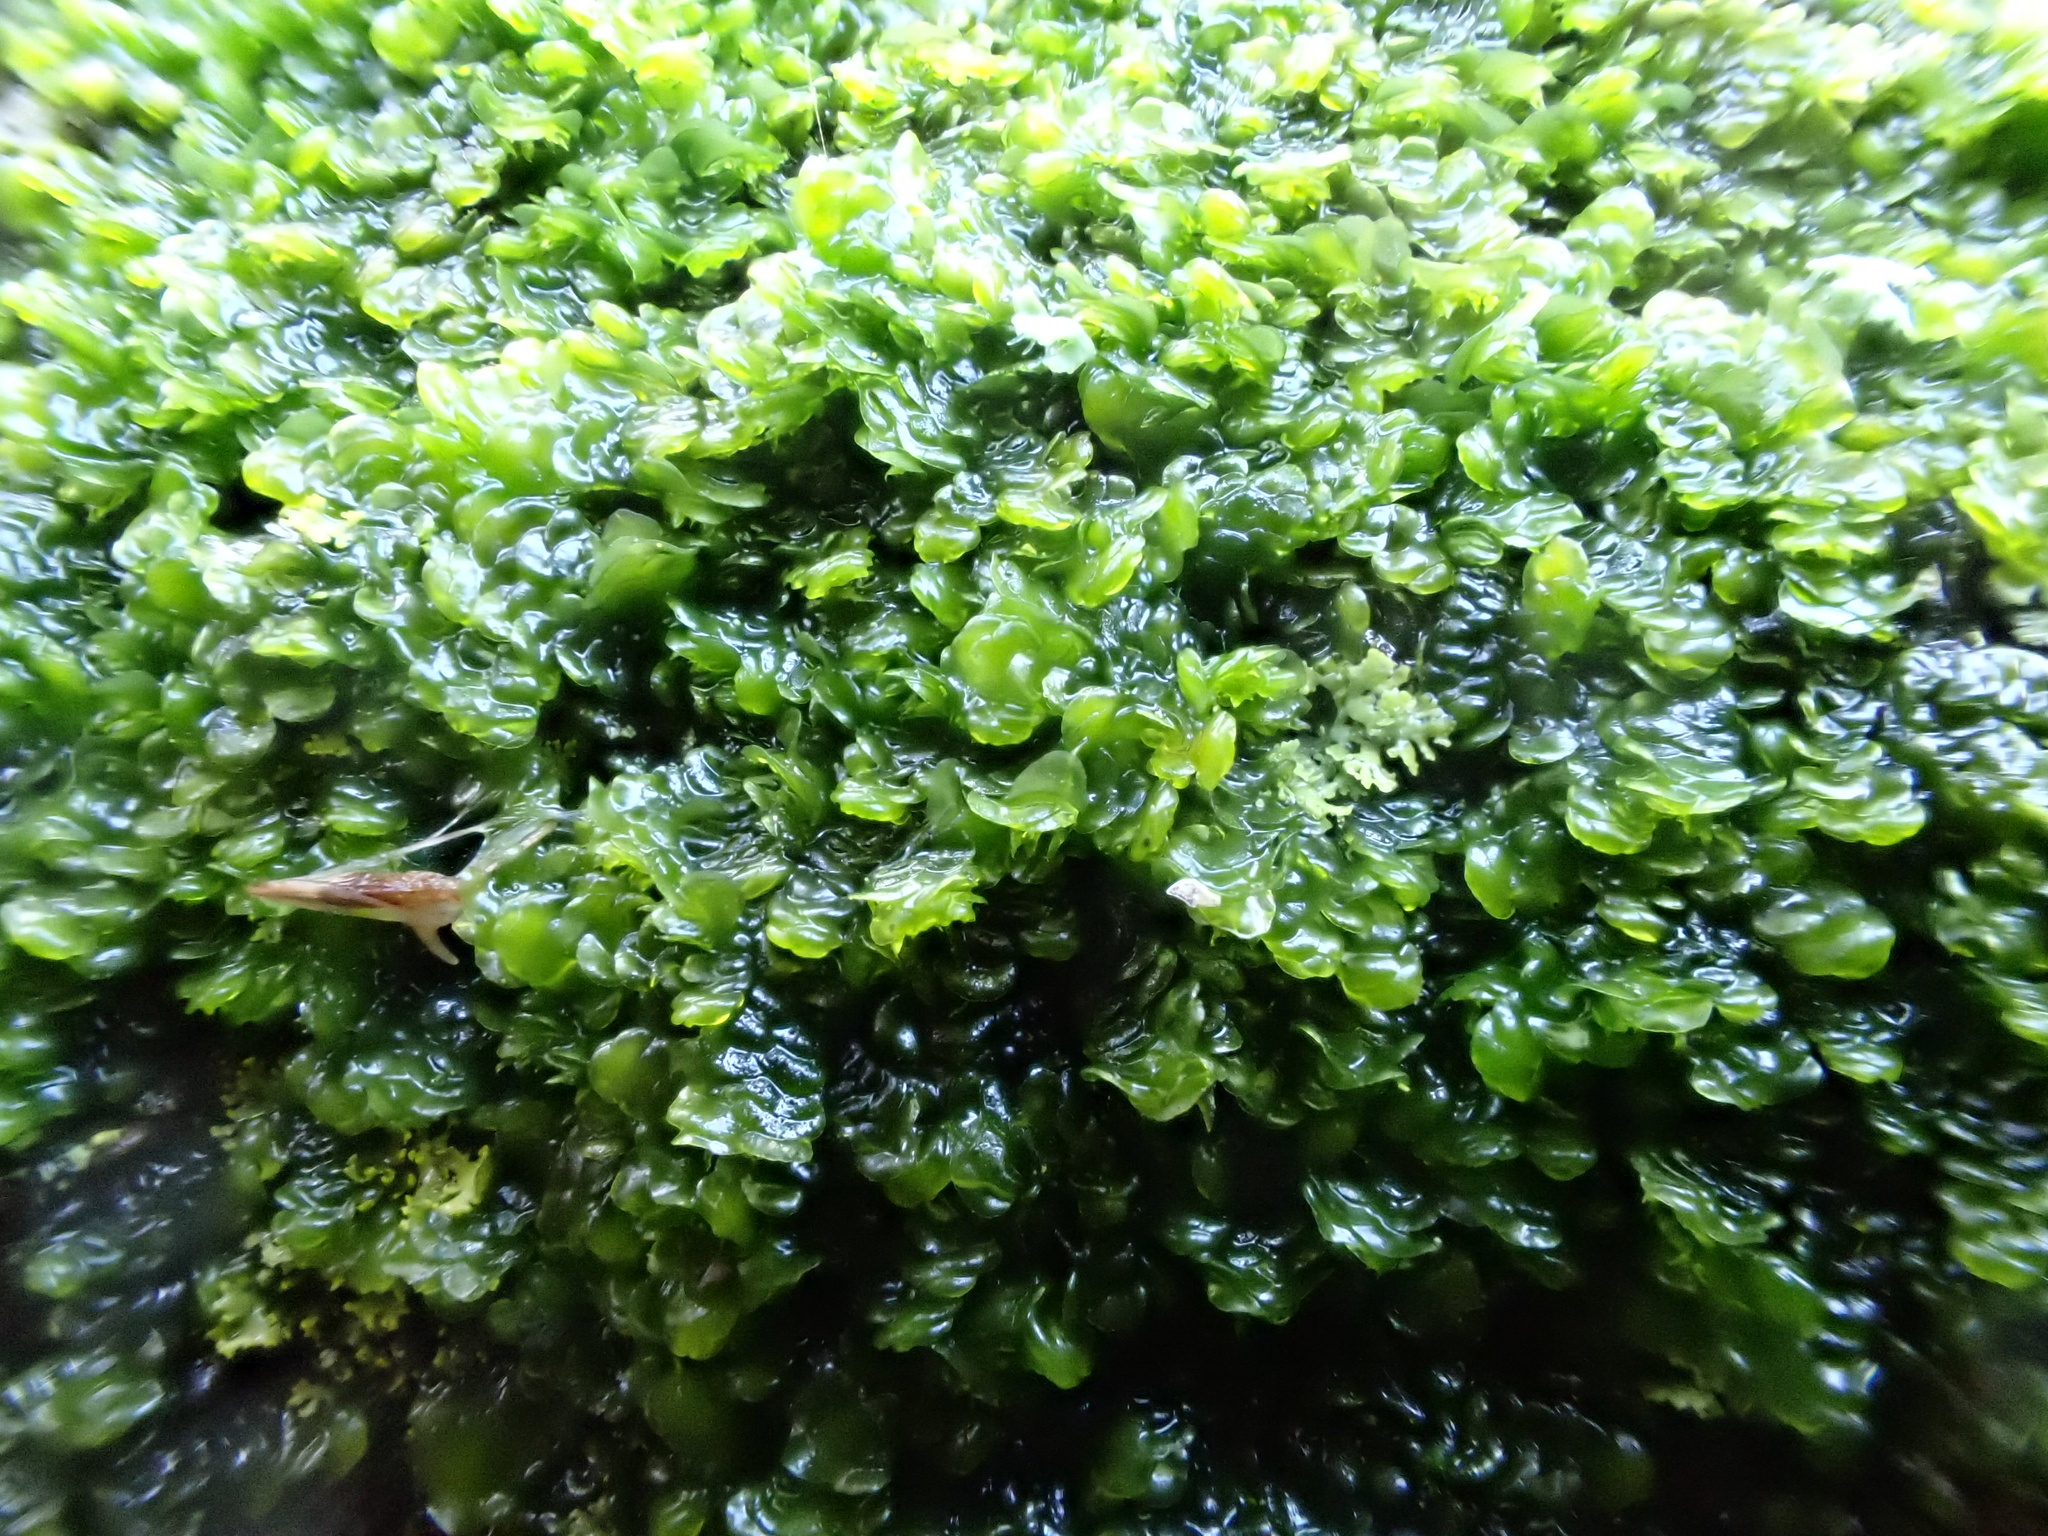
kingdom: Plantae
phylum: Marchantiophyta
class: Jungermanniopsida
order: Porellales
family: Frullaniaceae
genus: Frullania
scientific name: Frullania dilatata
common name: Dilated scalewort
